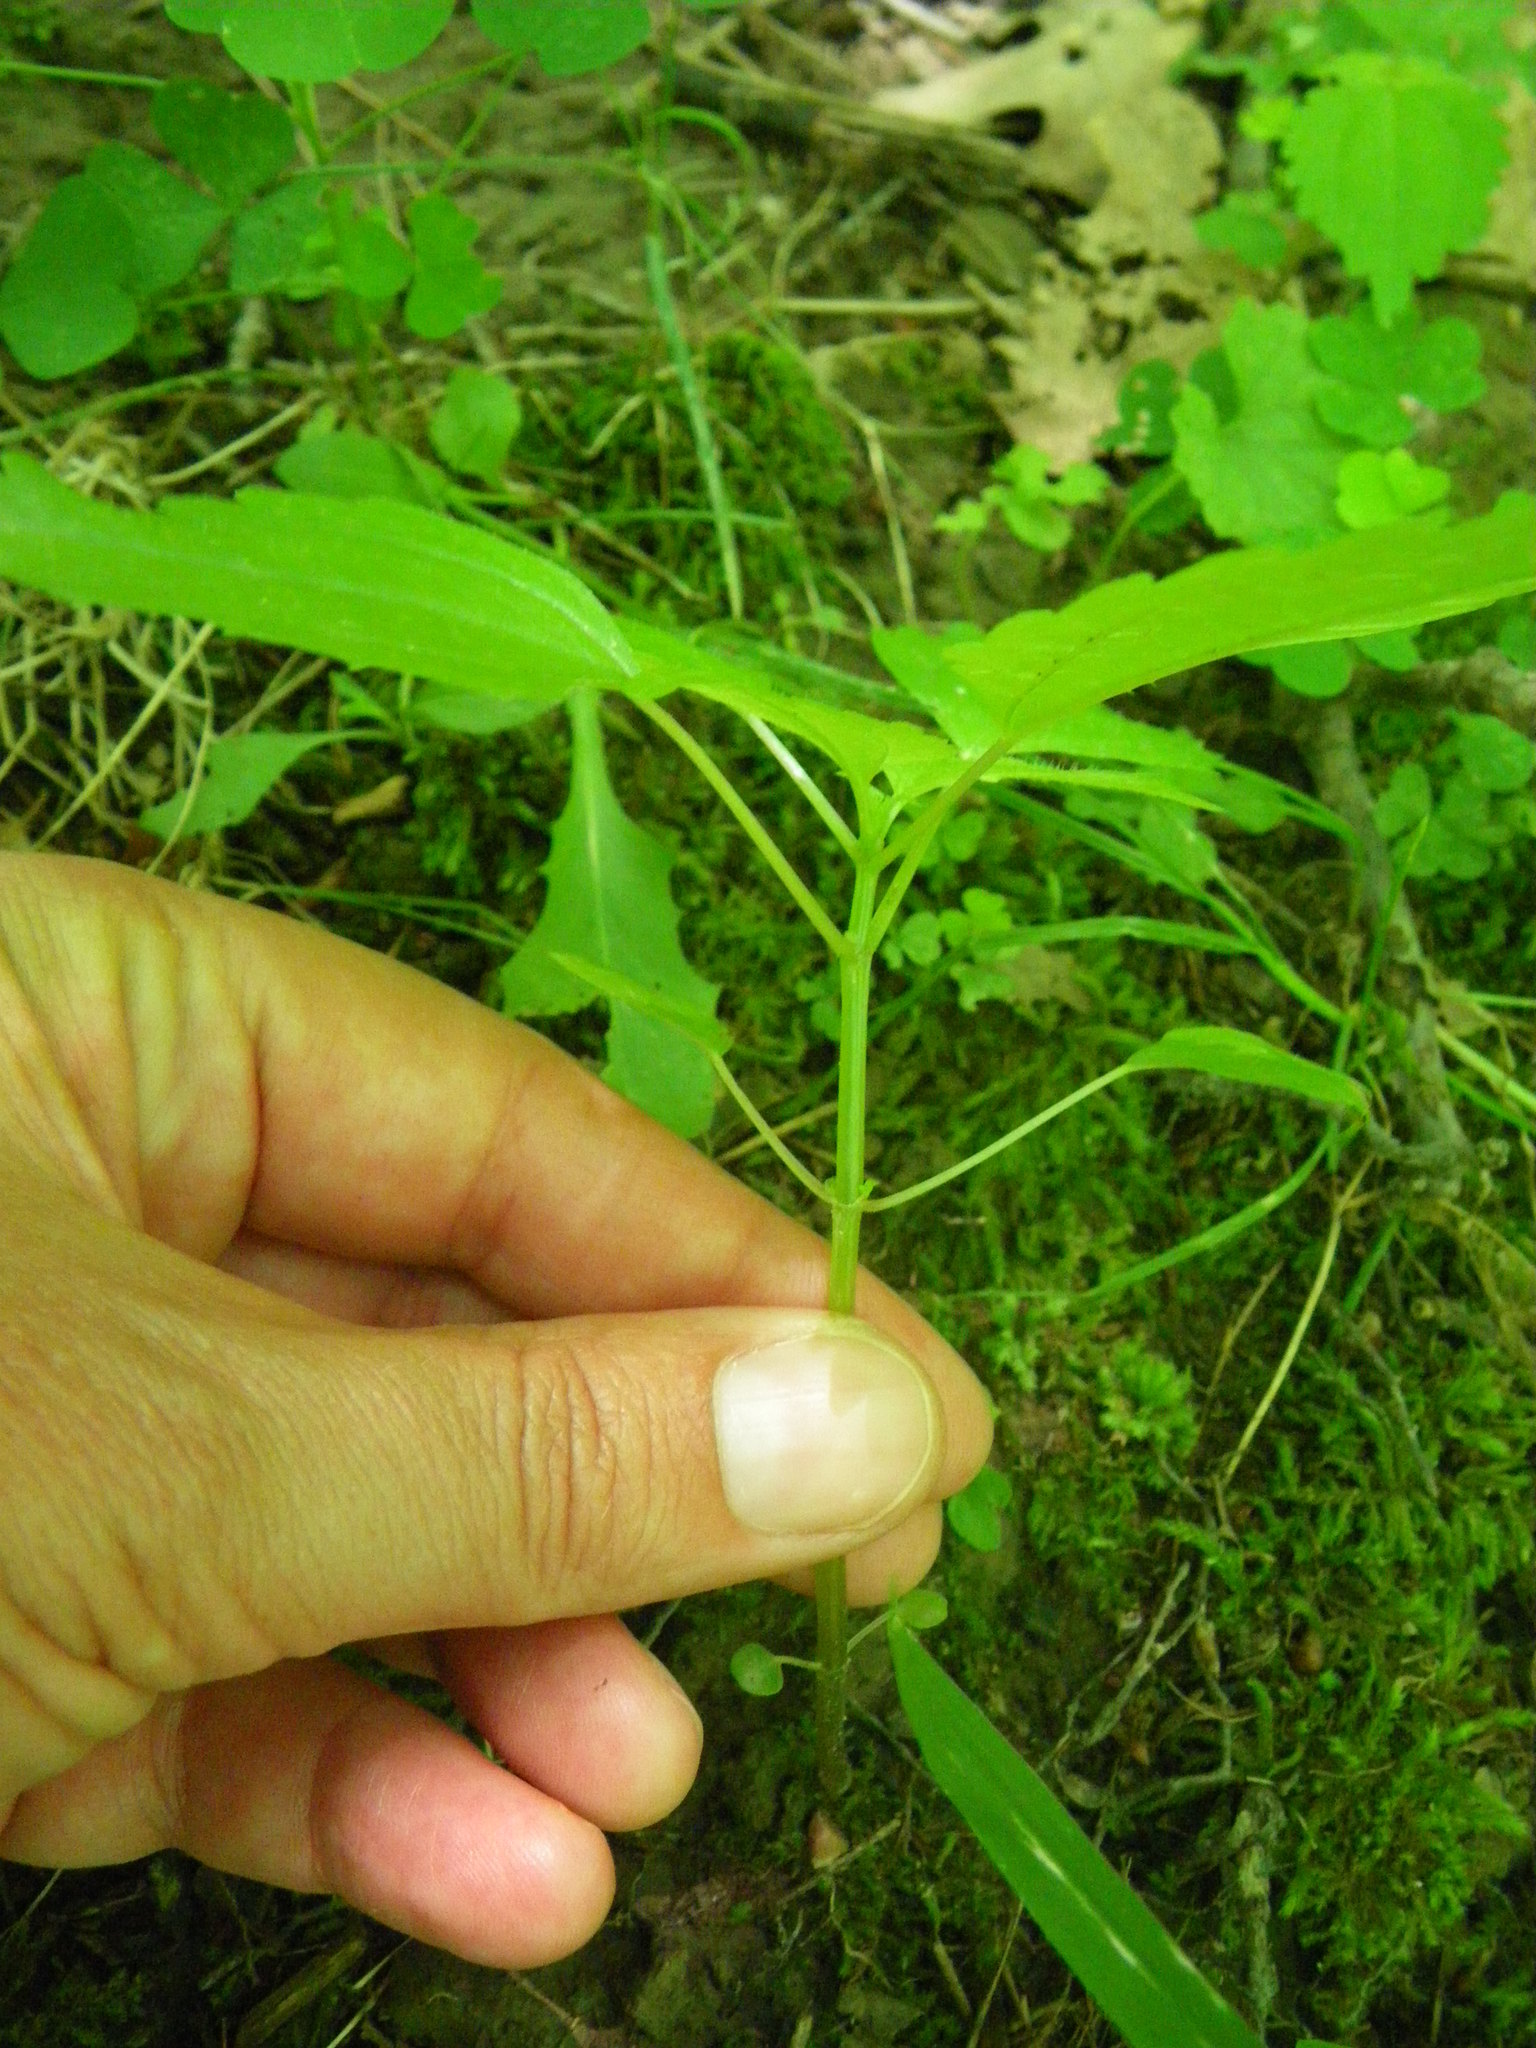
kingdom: Plantae
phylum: Tracheophyta
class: Magnoliopsida
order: Rosales
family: Urticaceae
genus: Pilea
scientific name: Pilea pumila
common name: Clearweed
